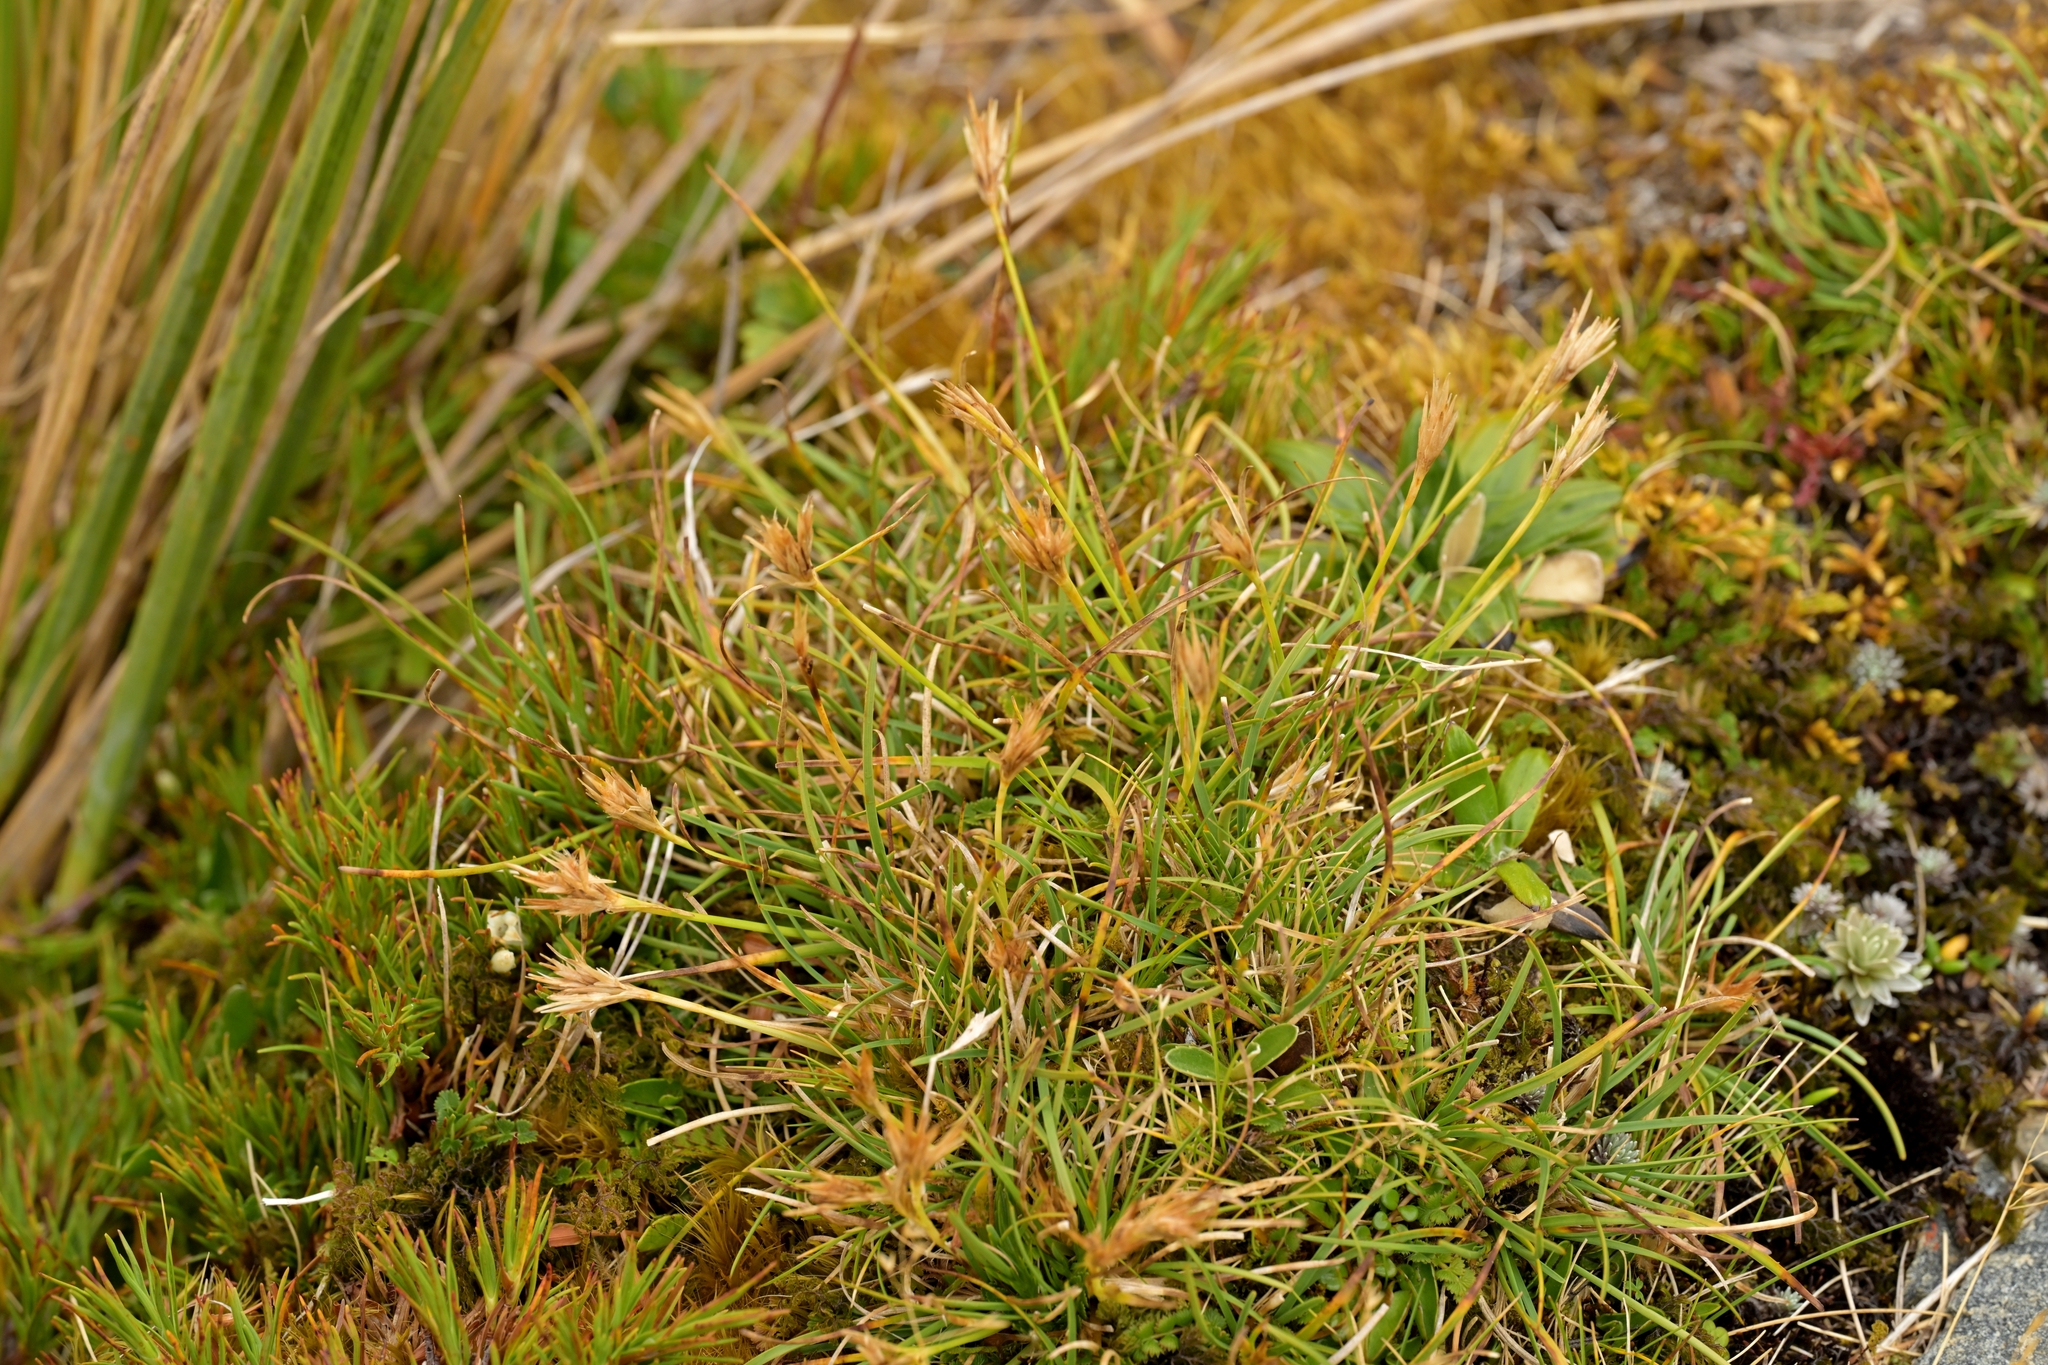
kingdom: Plantae
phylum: Tracheophyta
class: Liliopsida
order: Poales
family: Cyperaceae
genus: Carpha
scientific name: Carpha alpina
